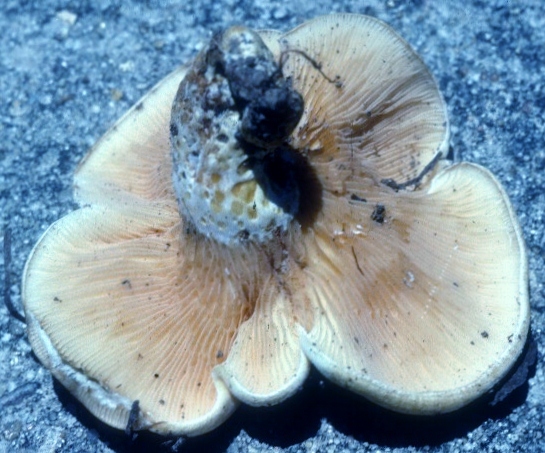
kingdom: Fungi
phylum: Basidiomycota
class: Agaricomycetes
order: Russulales
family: Russulaceae
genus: Multifurca
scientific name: Multifurca furcata
